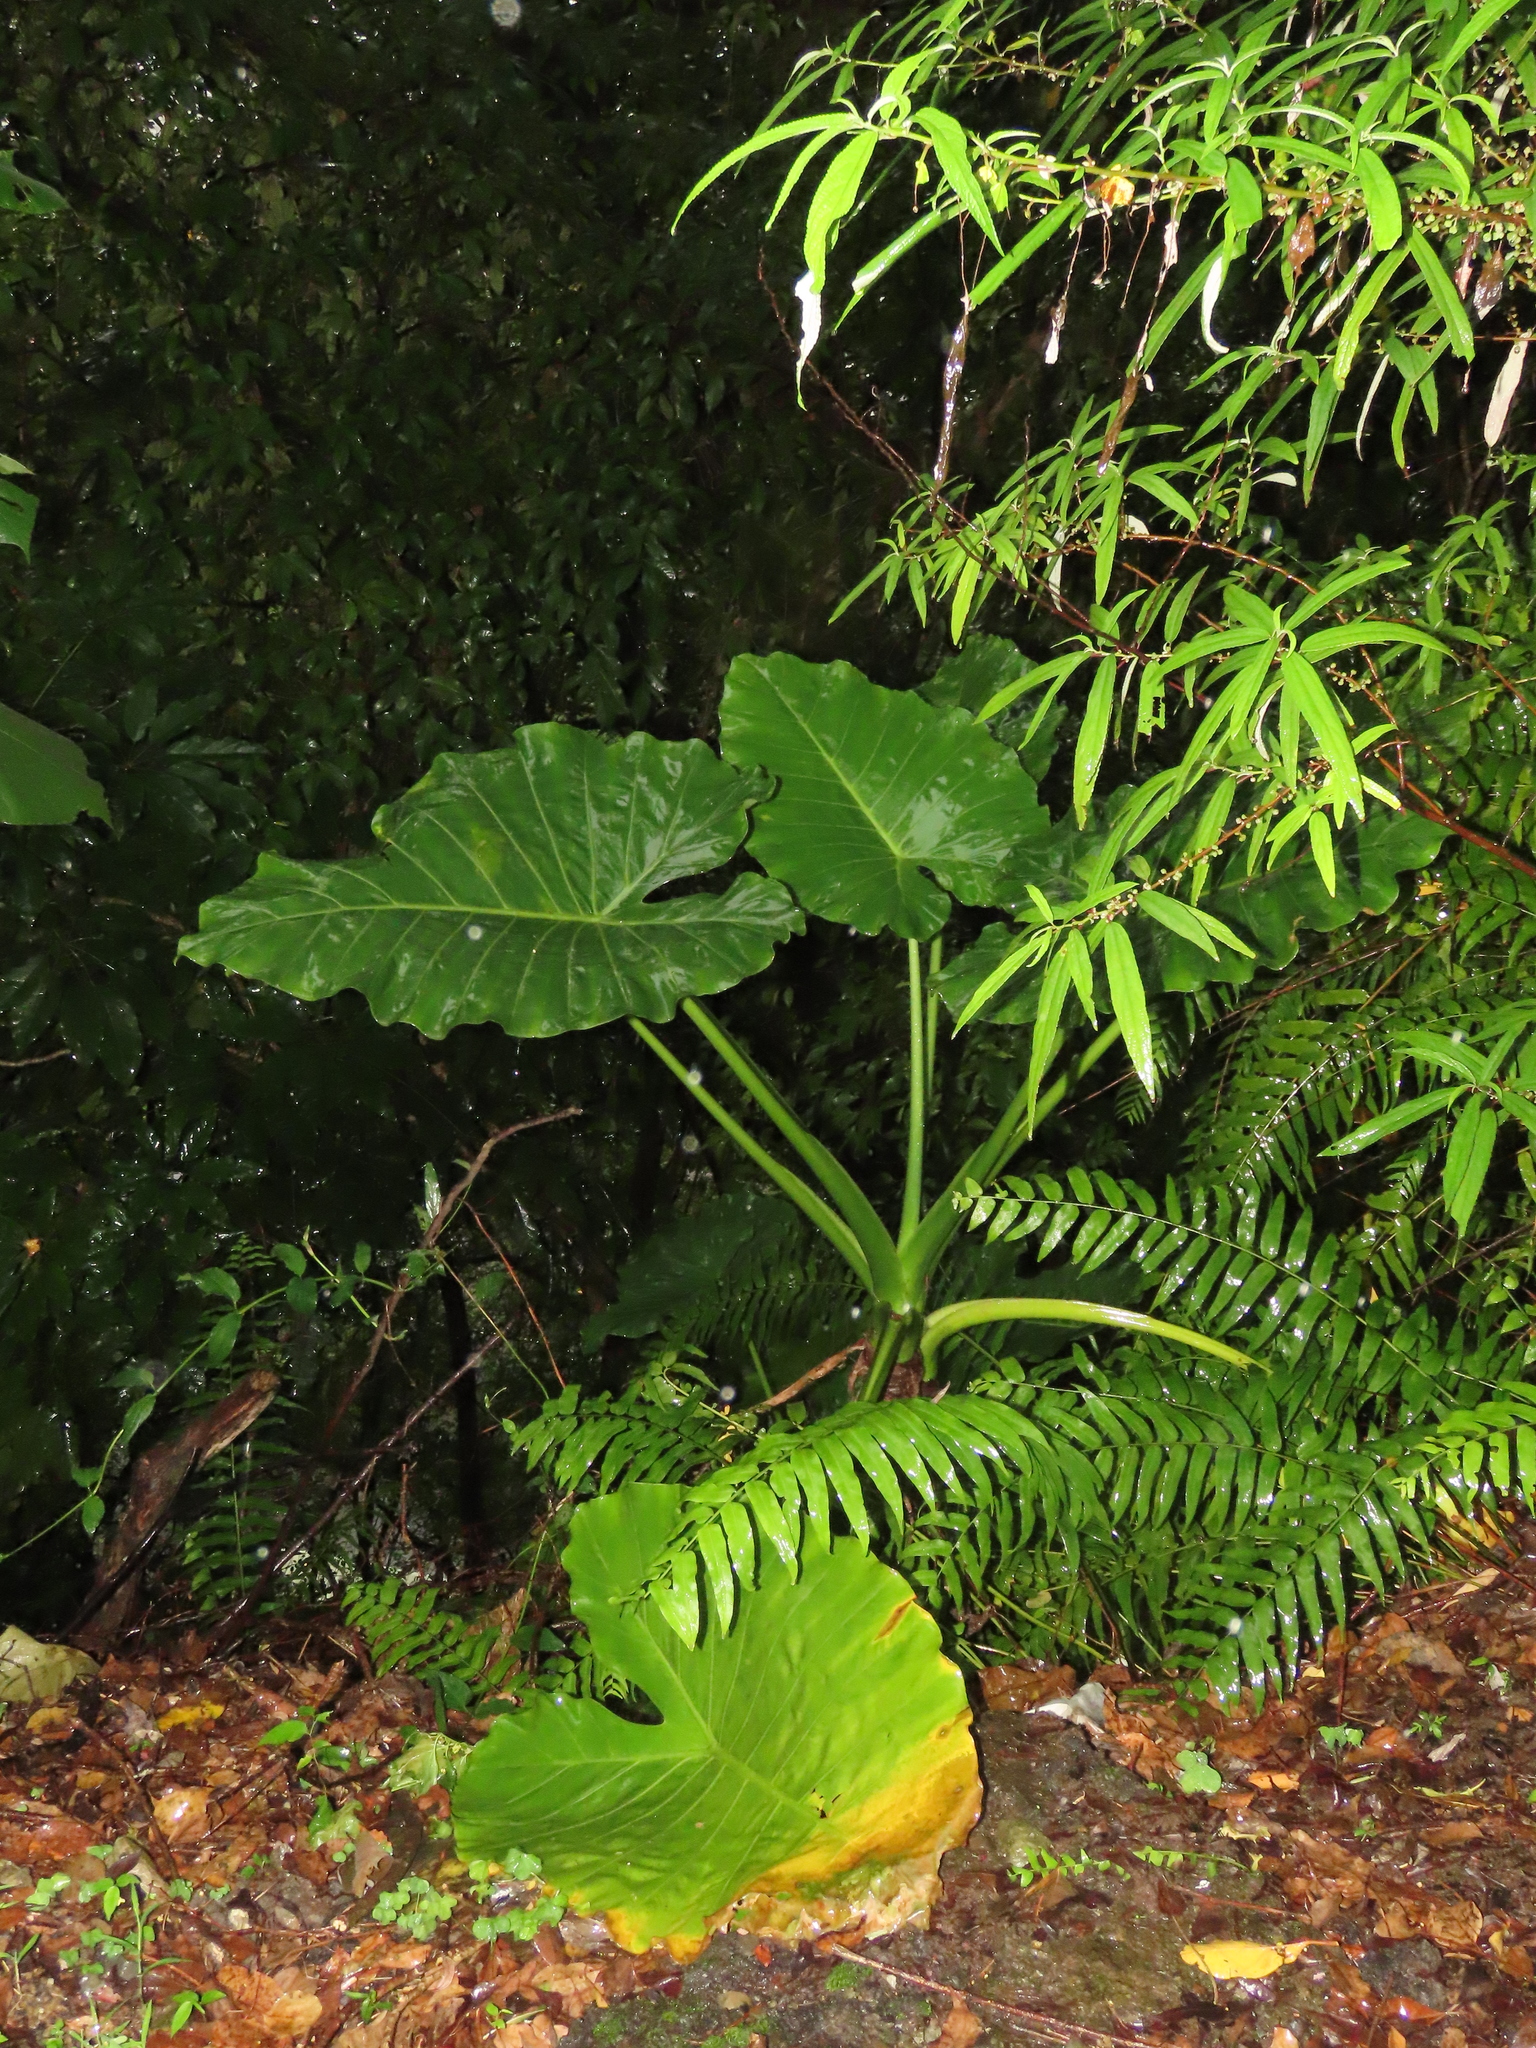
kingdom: Plantae
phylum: Tracheophyta
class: Liliopsida
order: Alismatales
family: Araceae
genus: Alocasia
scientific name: Alocasia odora
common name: Asian taro
